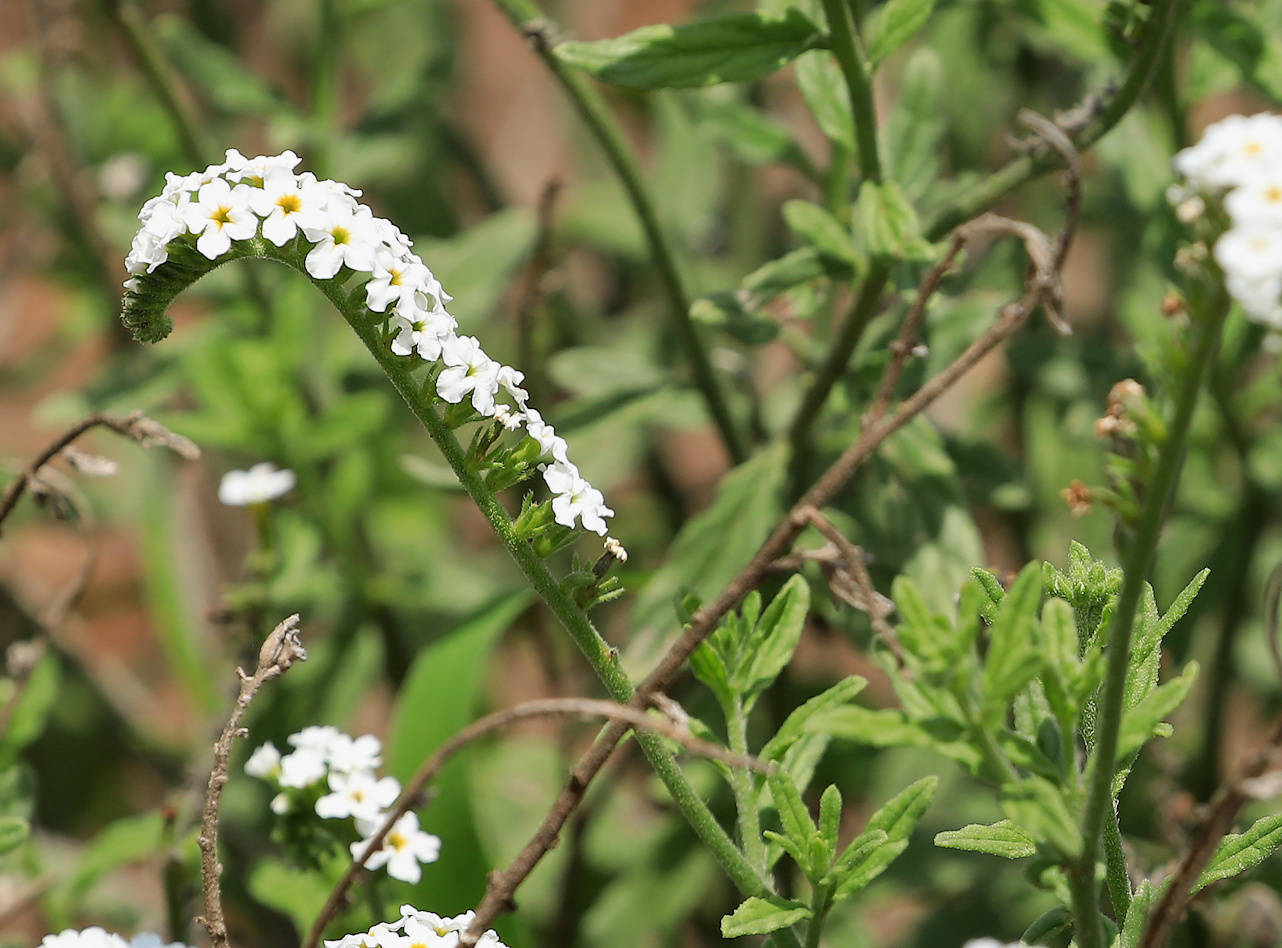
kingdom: Plantae
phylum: Tracheophyta
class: Magnoliopsida
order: Boraginales
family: Heliotropiaceae
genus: Heliotropium
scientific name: Heliotropium steudneri
